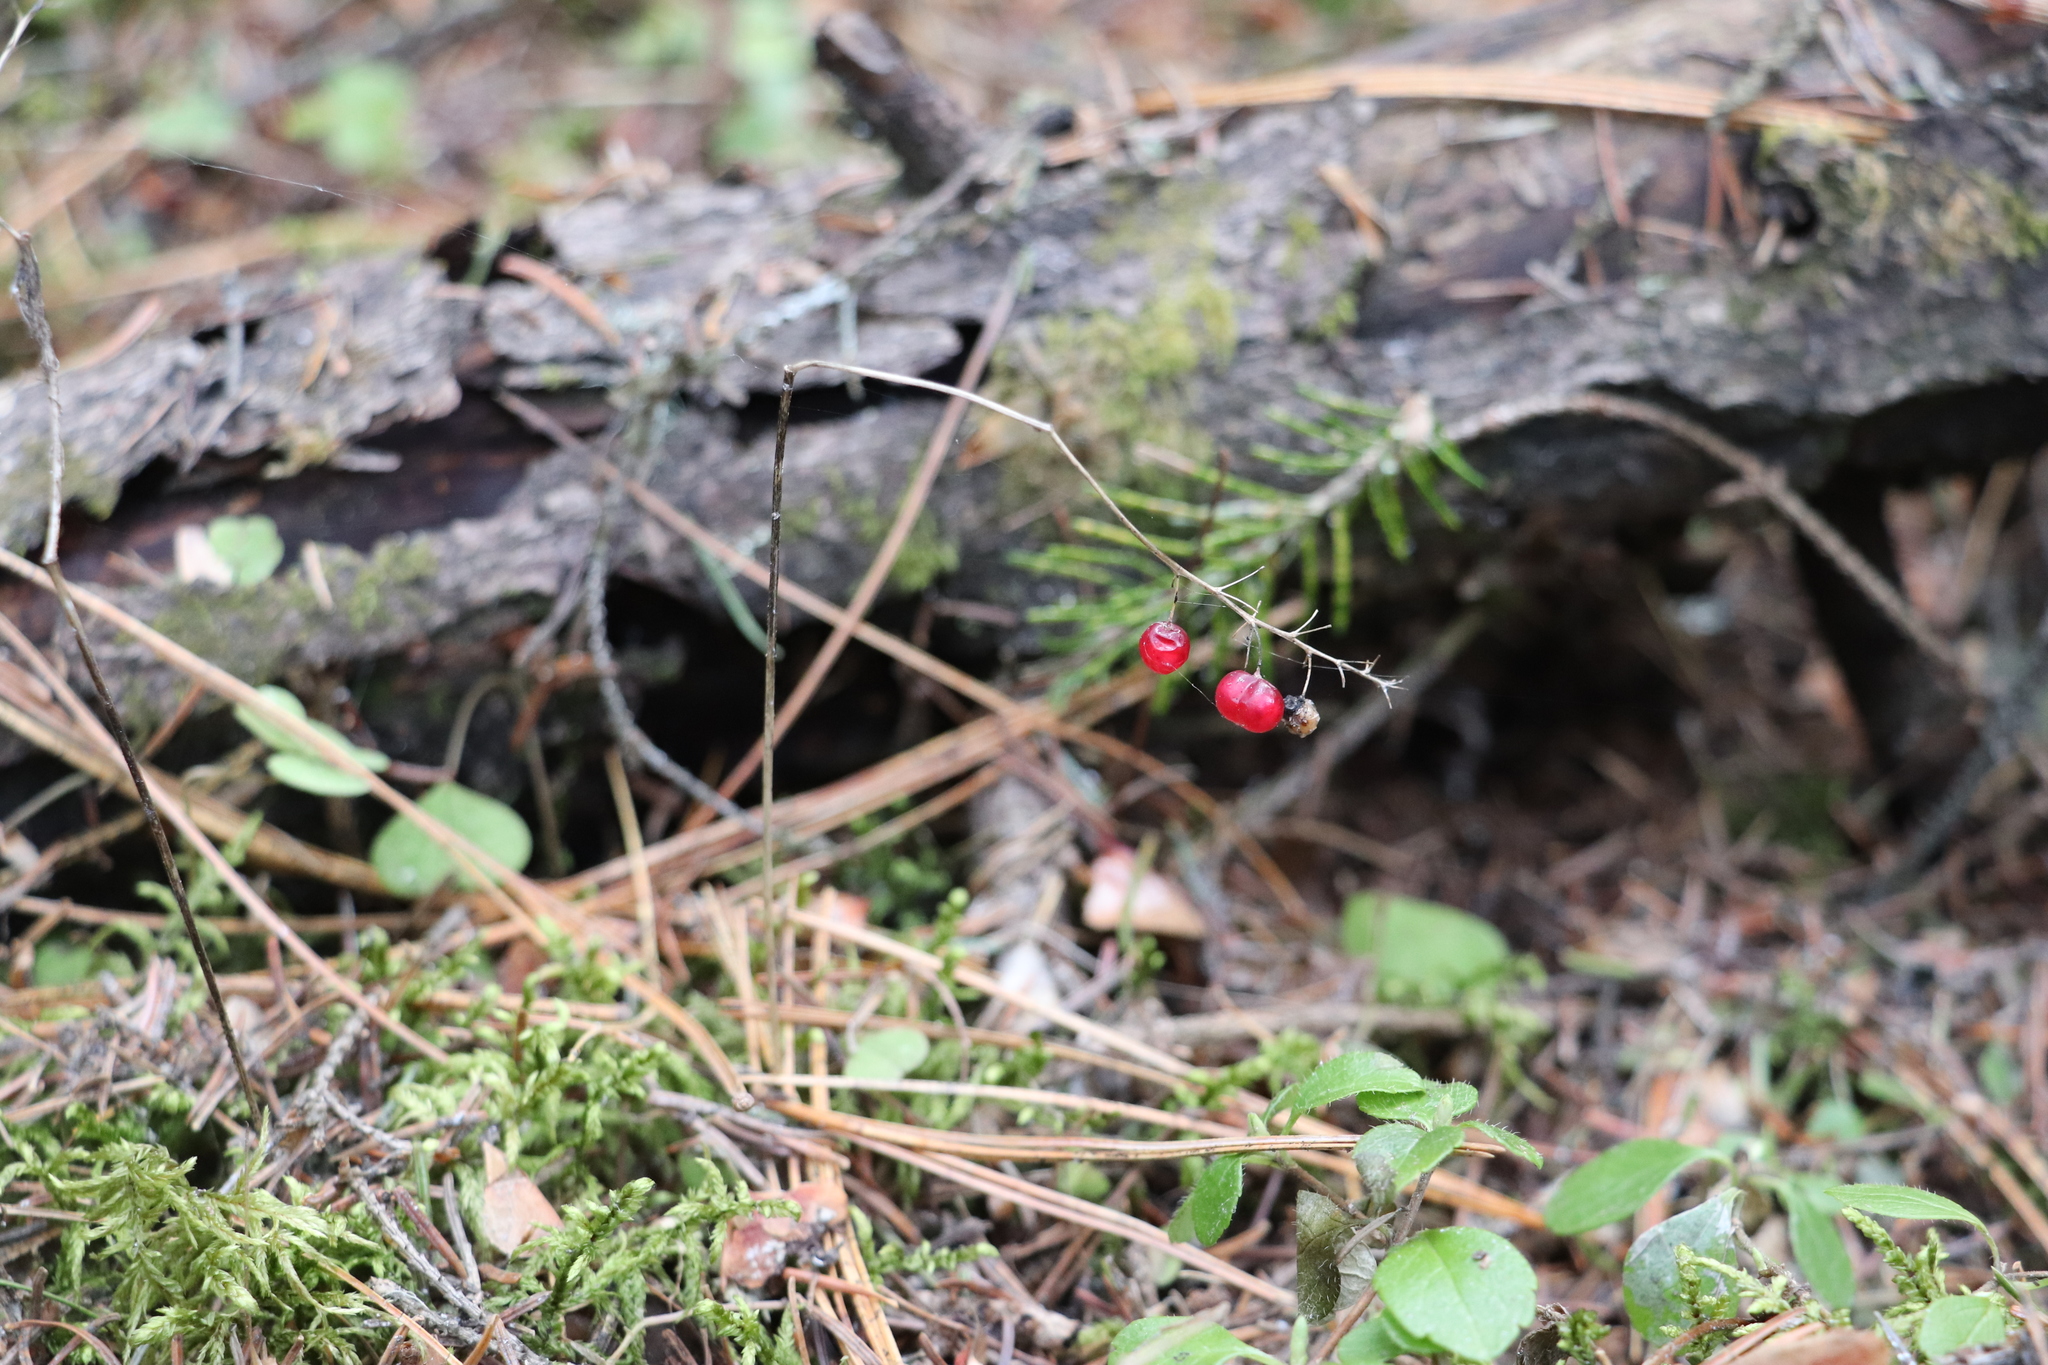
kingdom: Plantae
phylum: Tracheophyta
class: Liliopsida
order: Asparagales
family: Asparagaceae
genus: Maianthemum
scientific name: Maianthemum bifolium
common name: May lily
